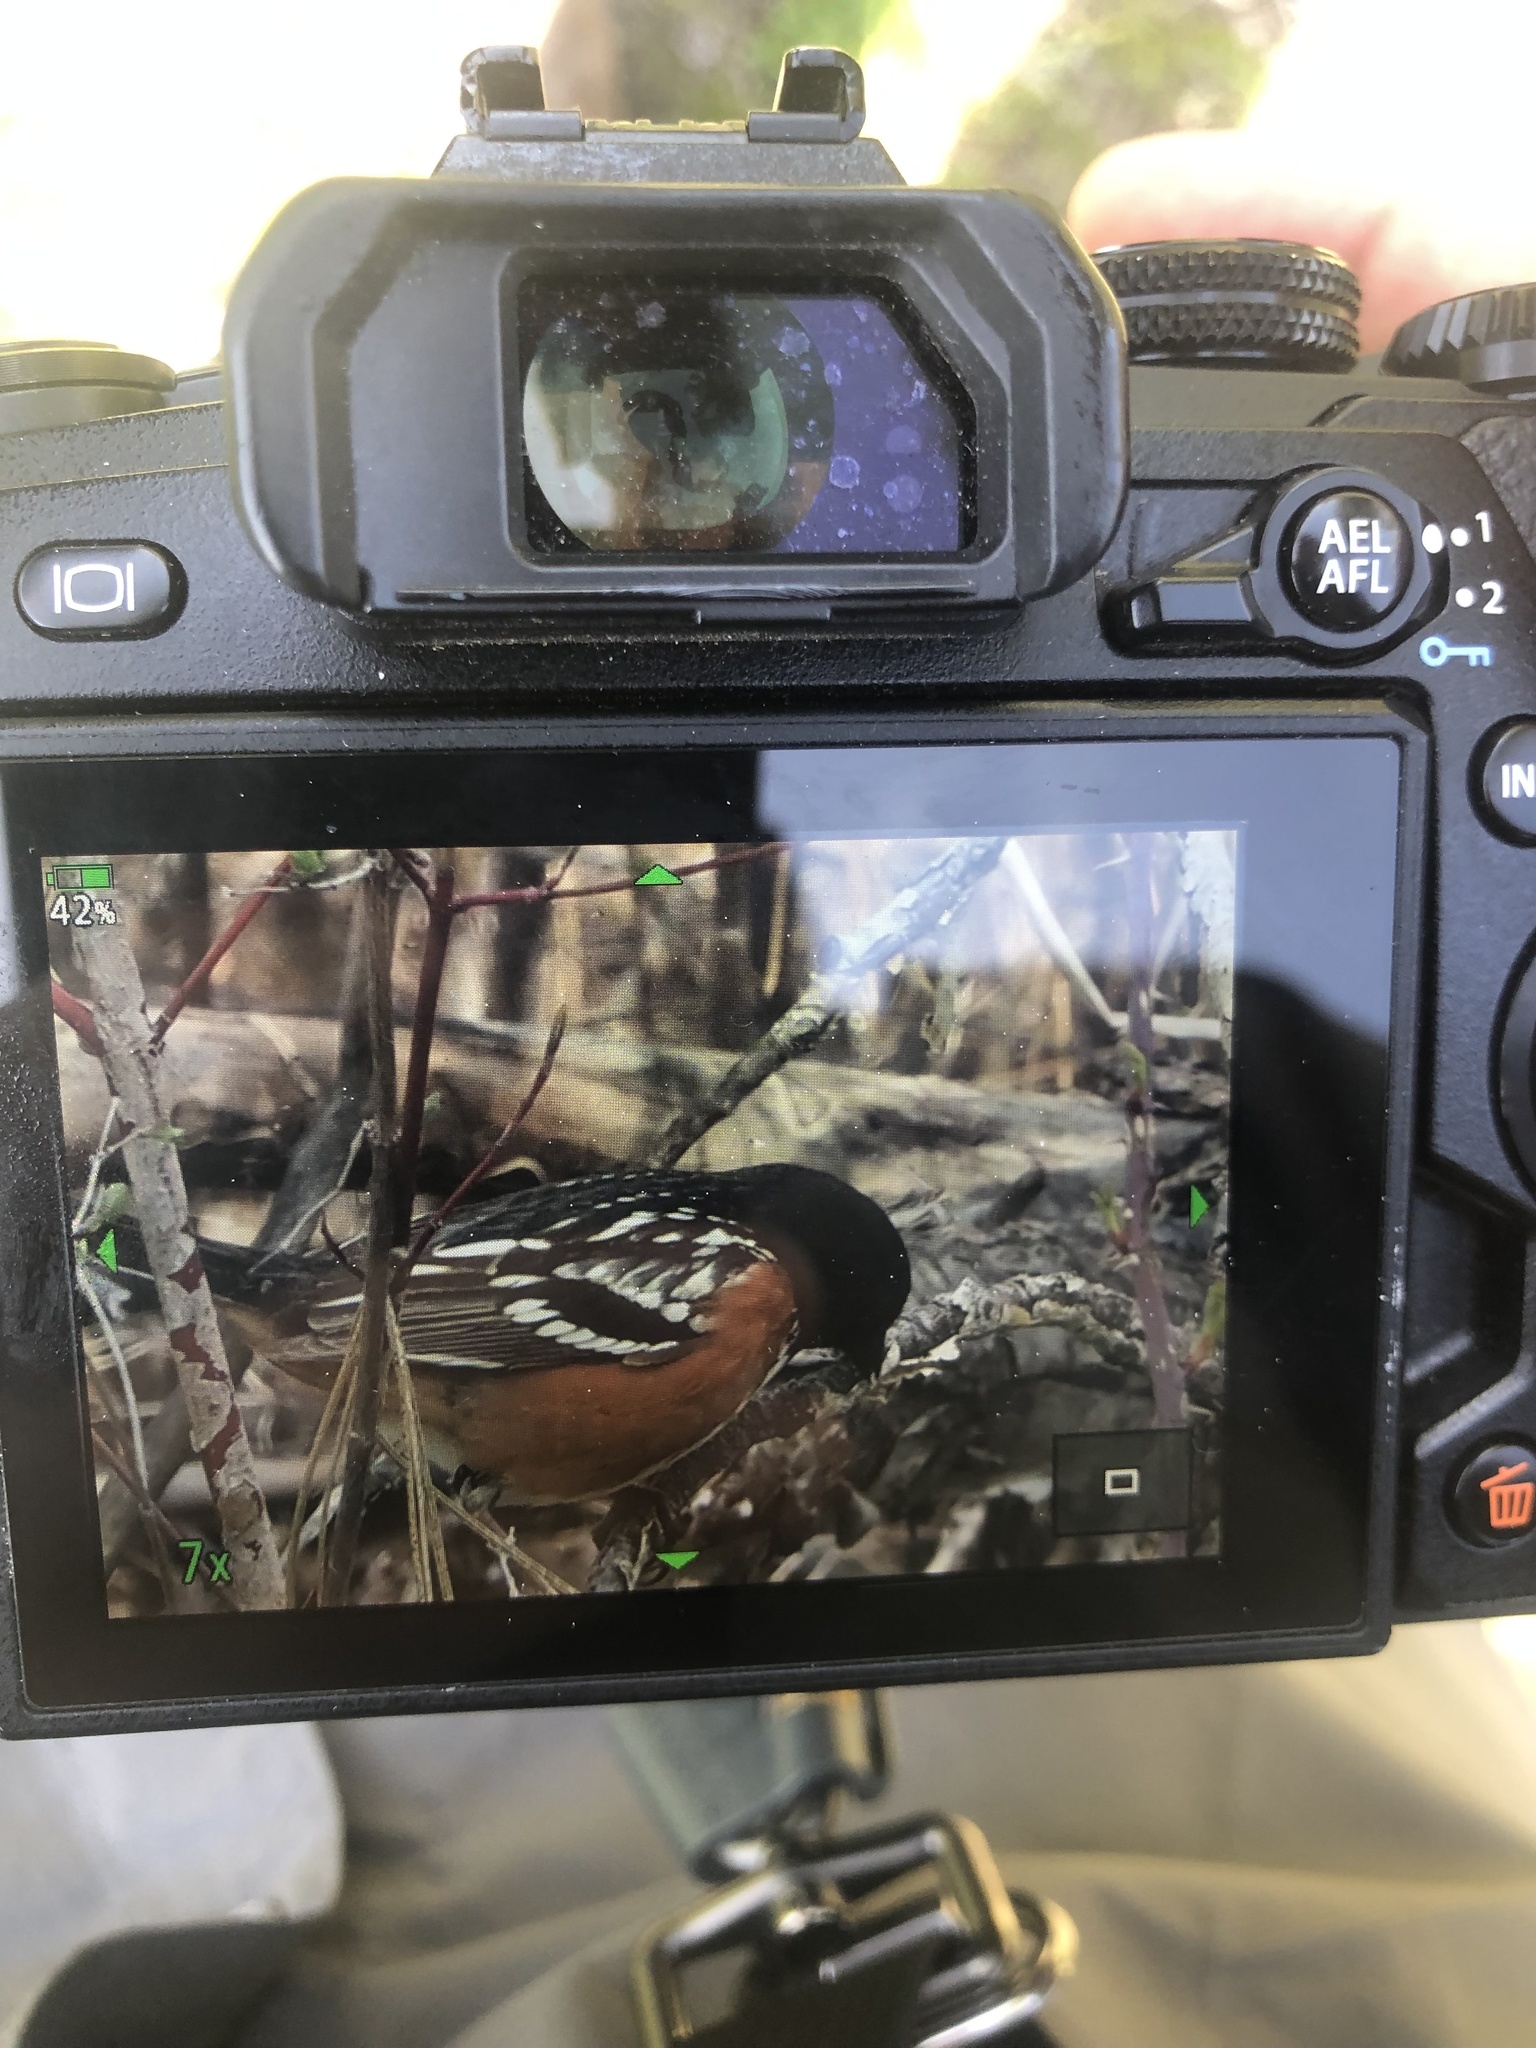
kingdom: Animalia
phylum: Chordata
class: Aves
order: Passeriformes
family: Passerellidae
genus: Pipilo
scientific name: Pipilo maculatus
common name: Spotted towhee
